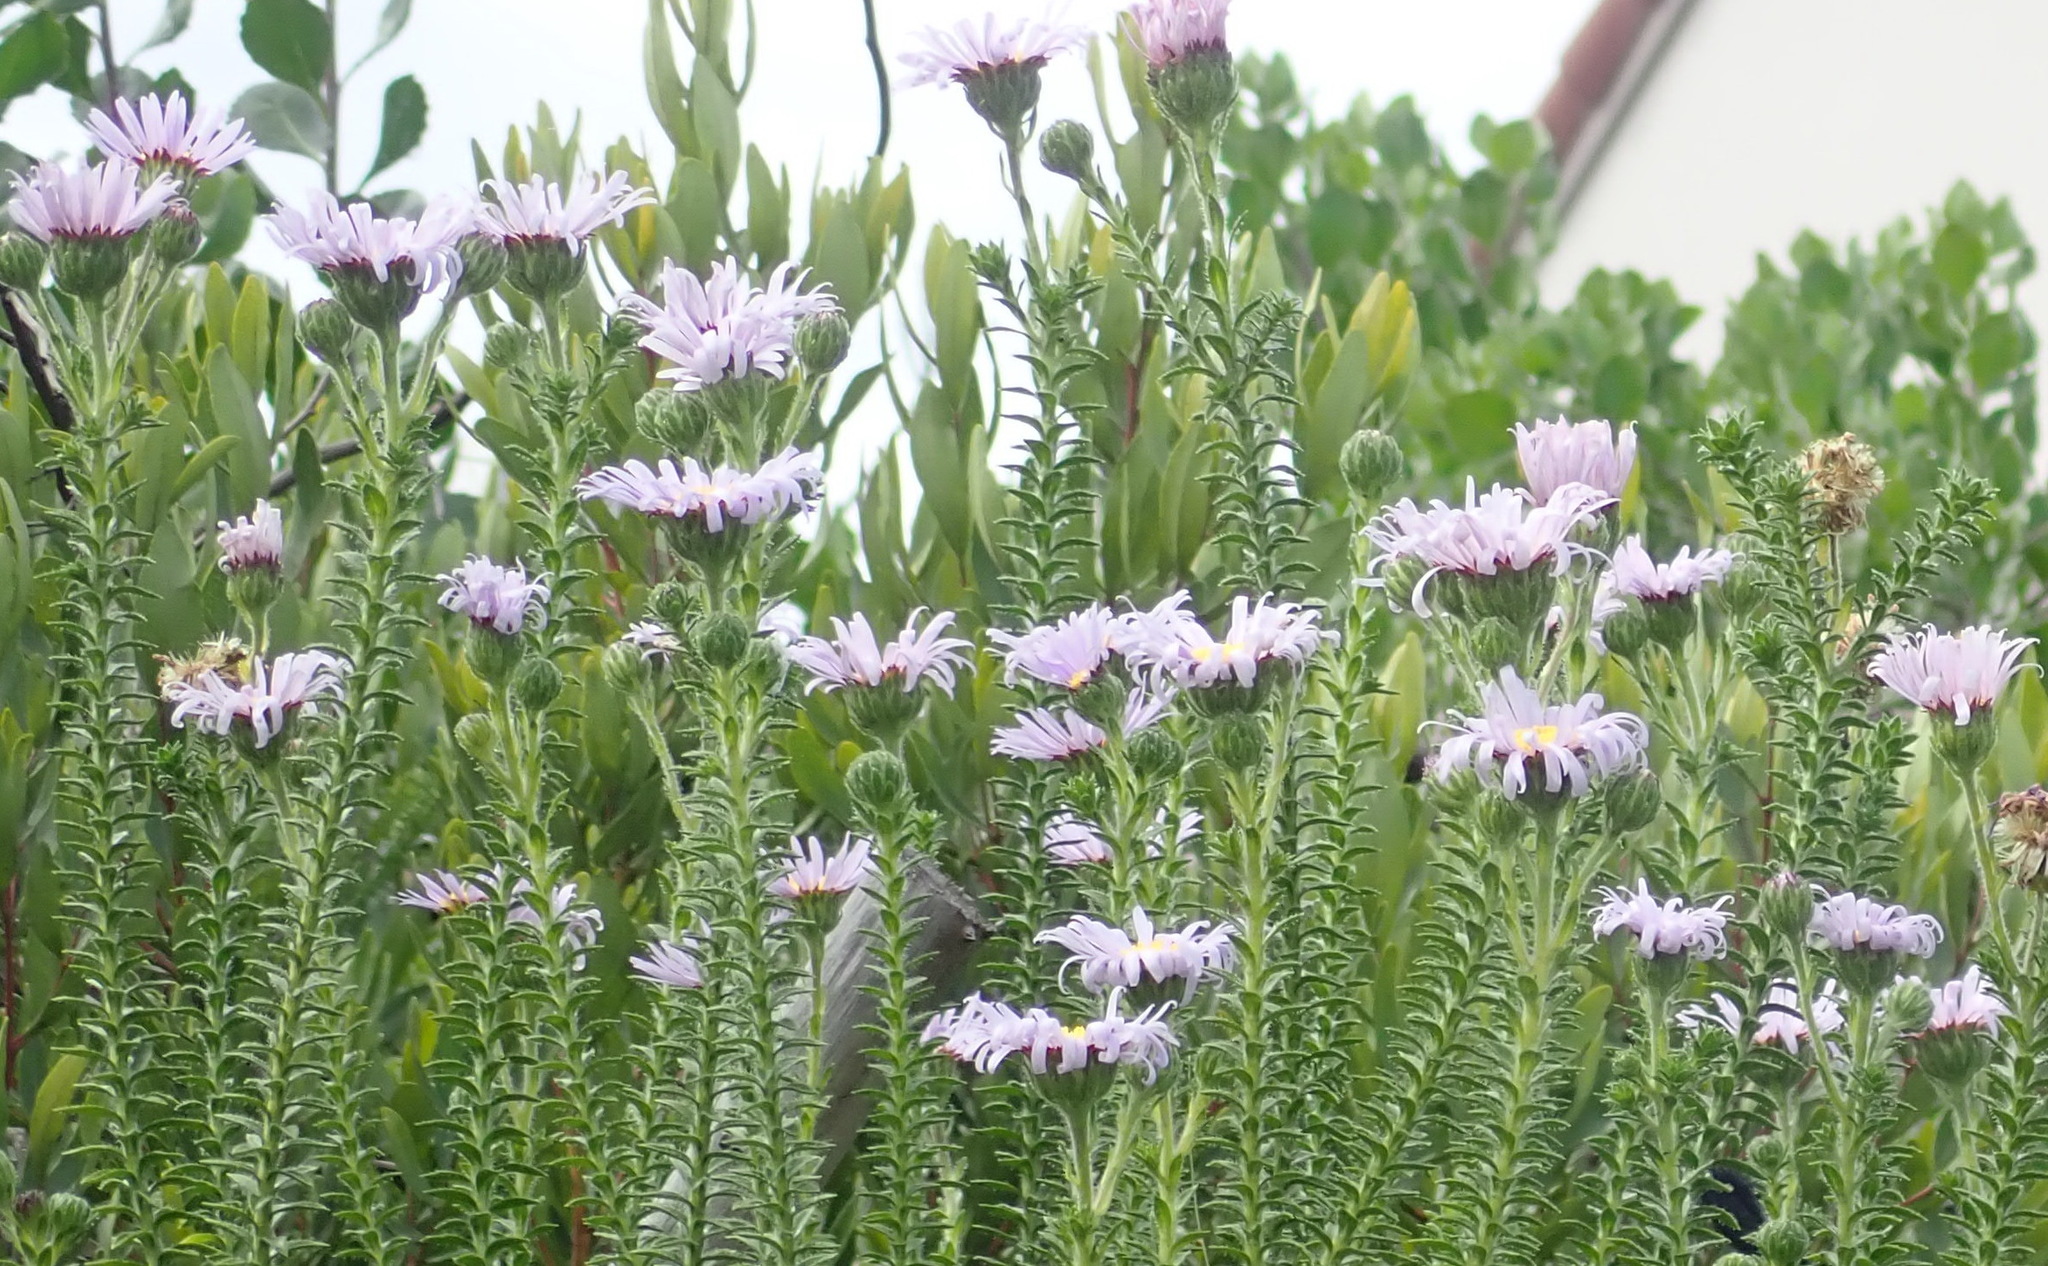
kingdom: Plantae
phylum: Tracheophyta
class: Magnoliopsida
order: Asterales
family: Asteraceae
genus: Felicia
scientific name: Felicia echinata
